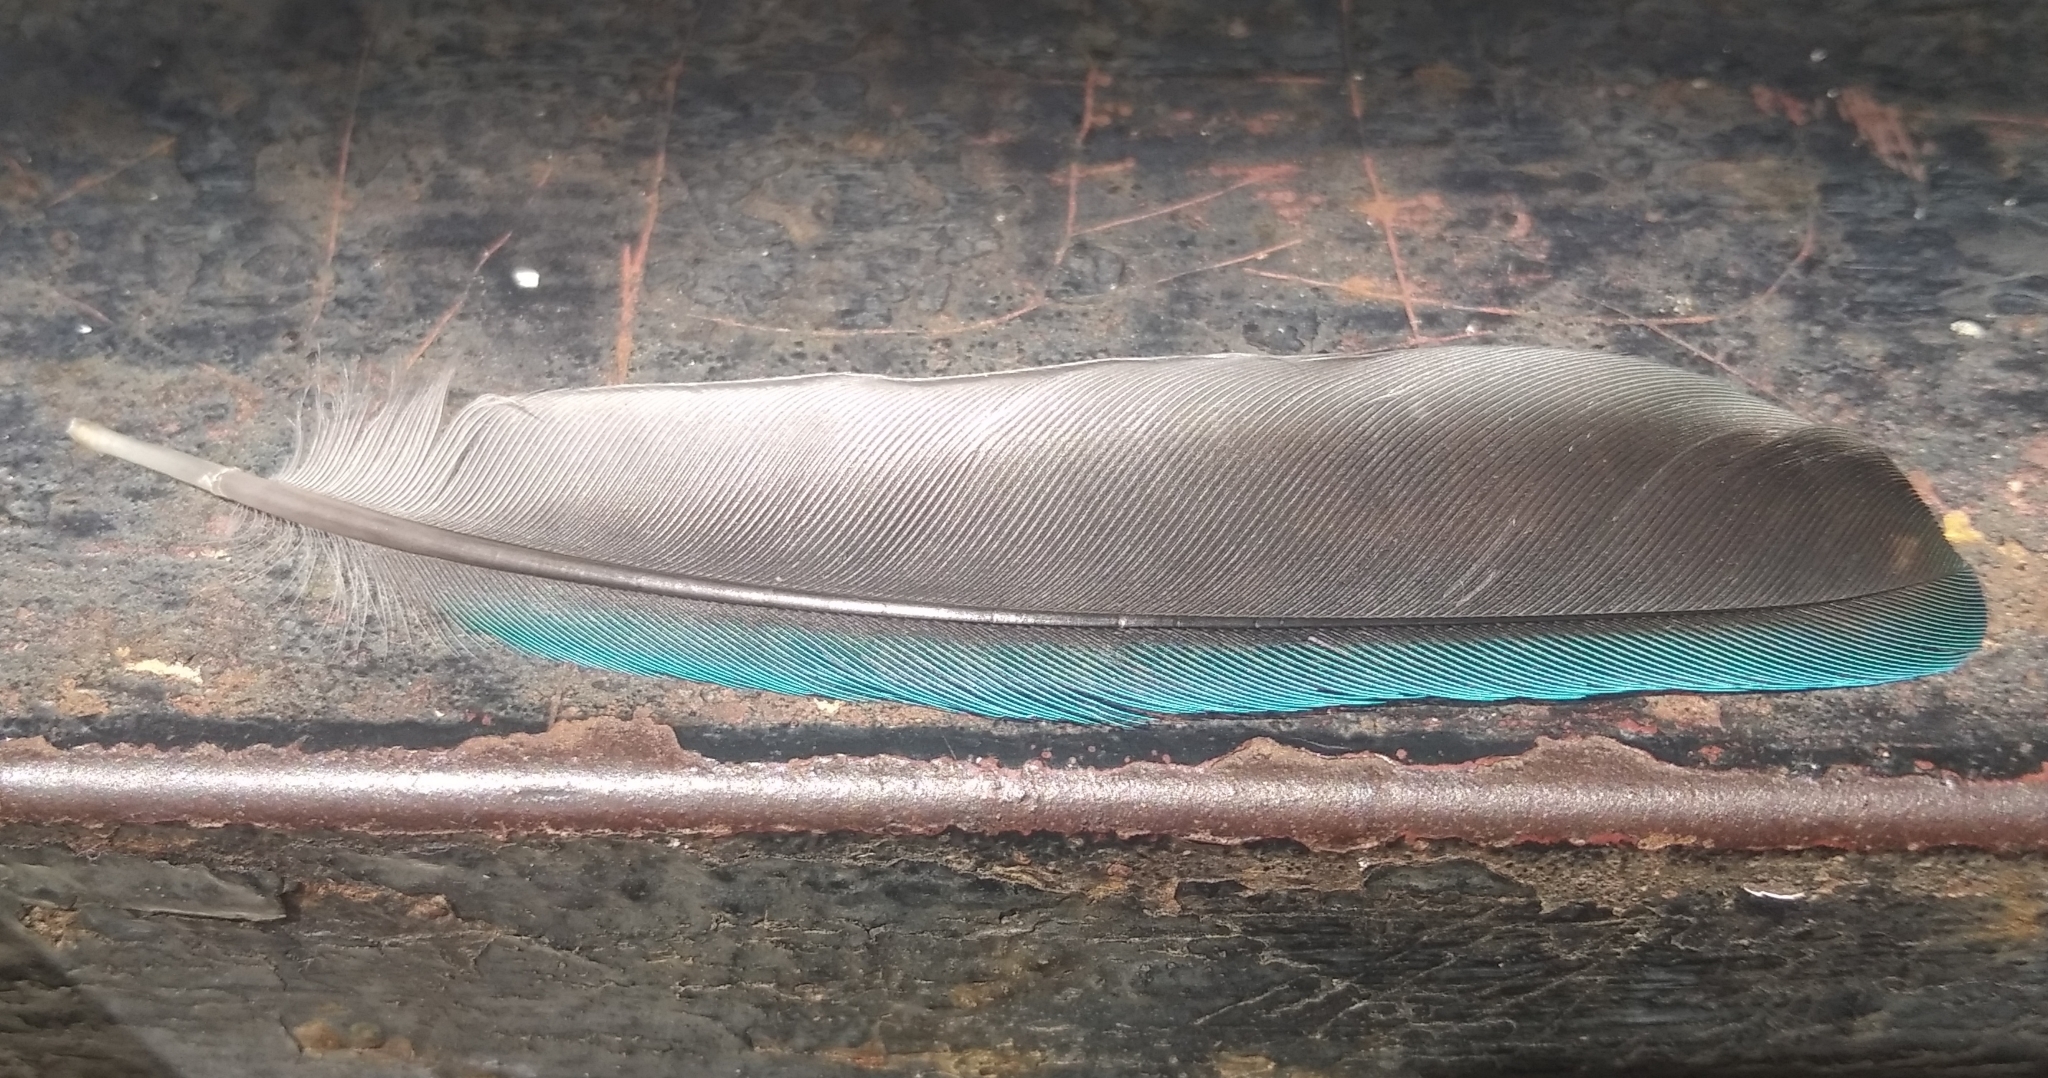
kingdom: Animalia
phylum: Chordata
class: Aves
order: Passeriformes
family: Thraupidae
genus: Thraupis
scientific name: Thraupis episcopus
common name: Blue-grey tanager
